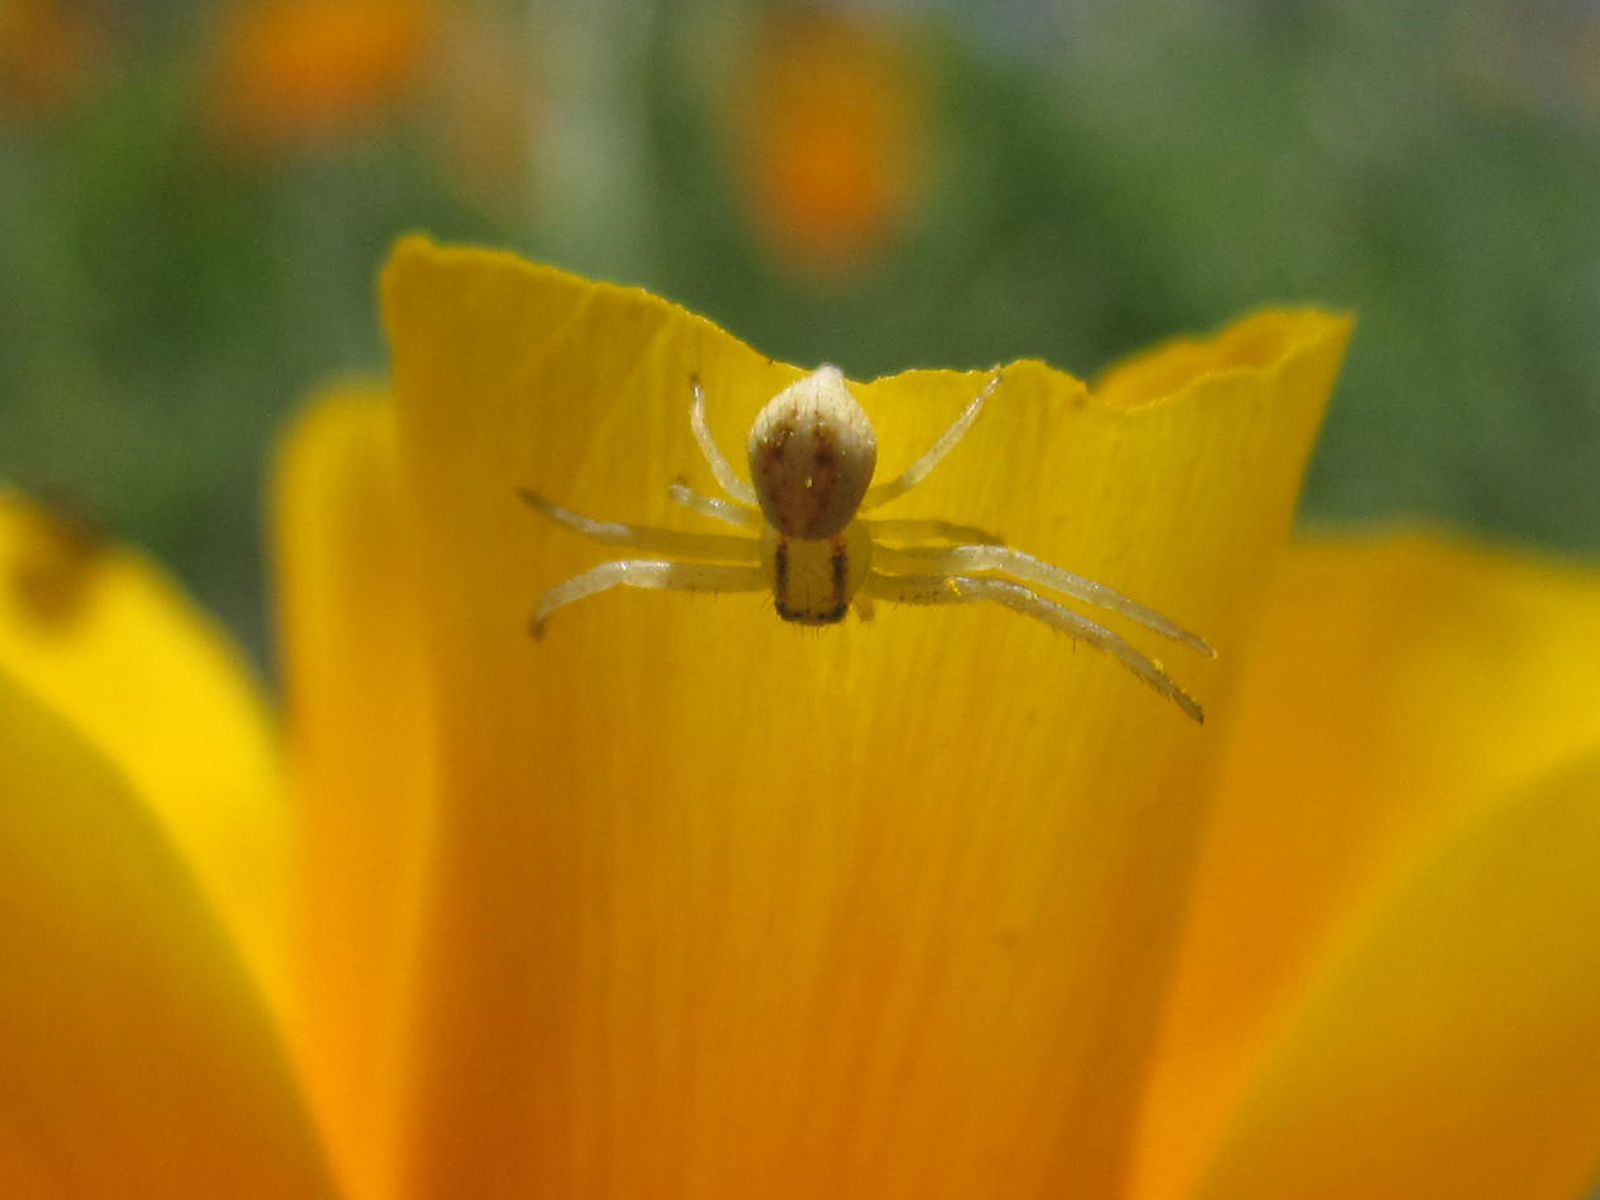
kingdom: Animalia
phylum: Arthropoda
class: Arachnida
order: Araneae
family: Thomisidae
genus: Misumenops
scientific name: Misumenops temibilis
